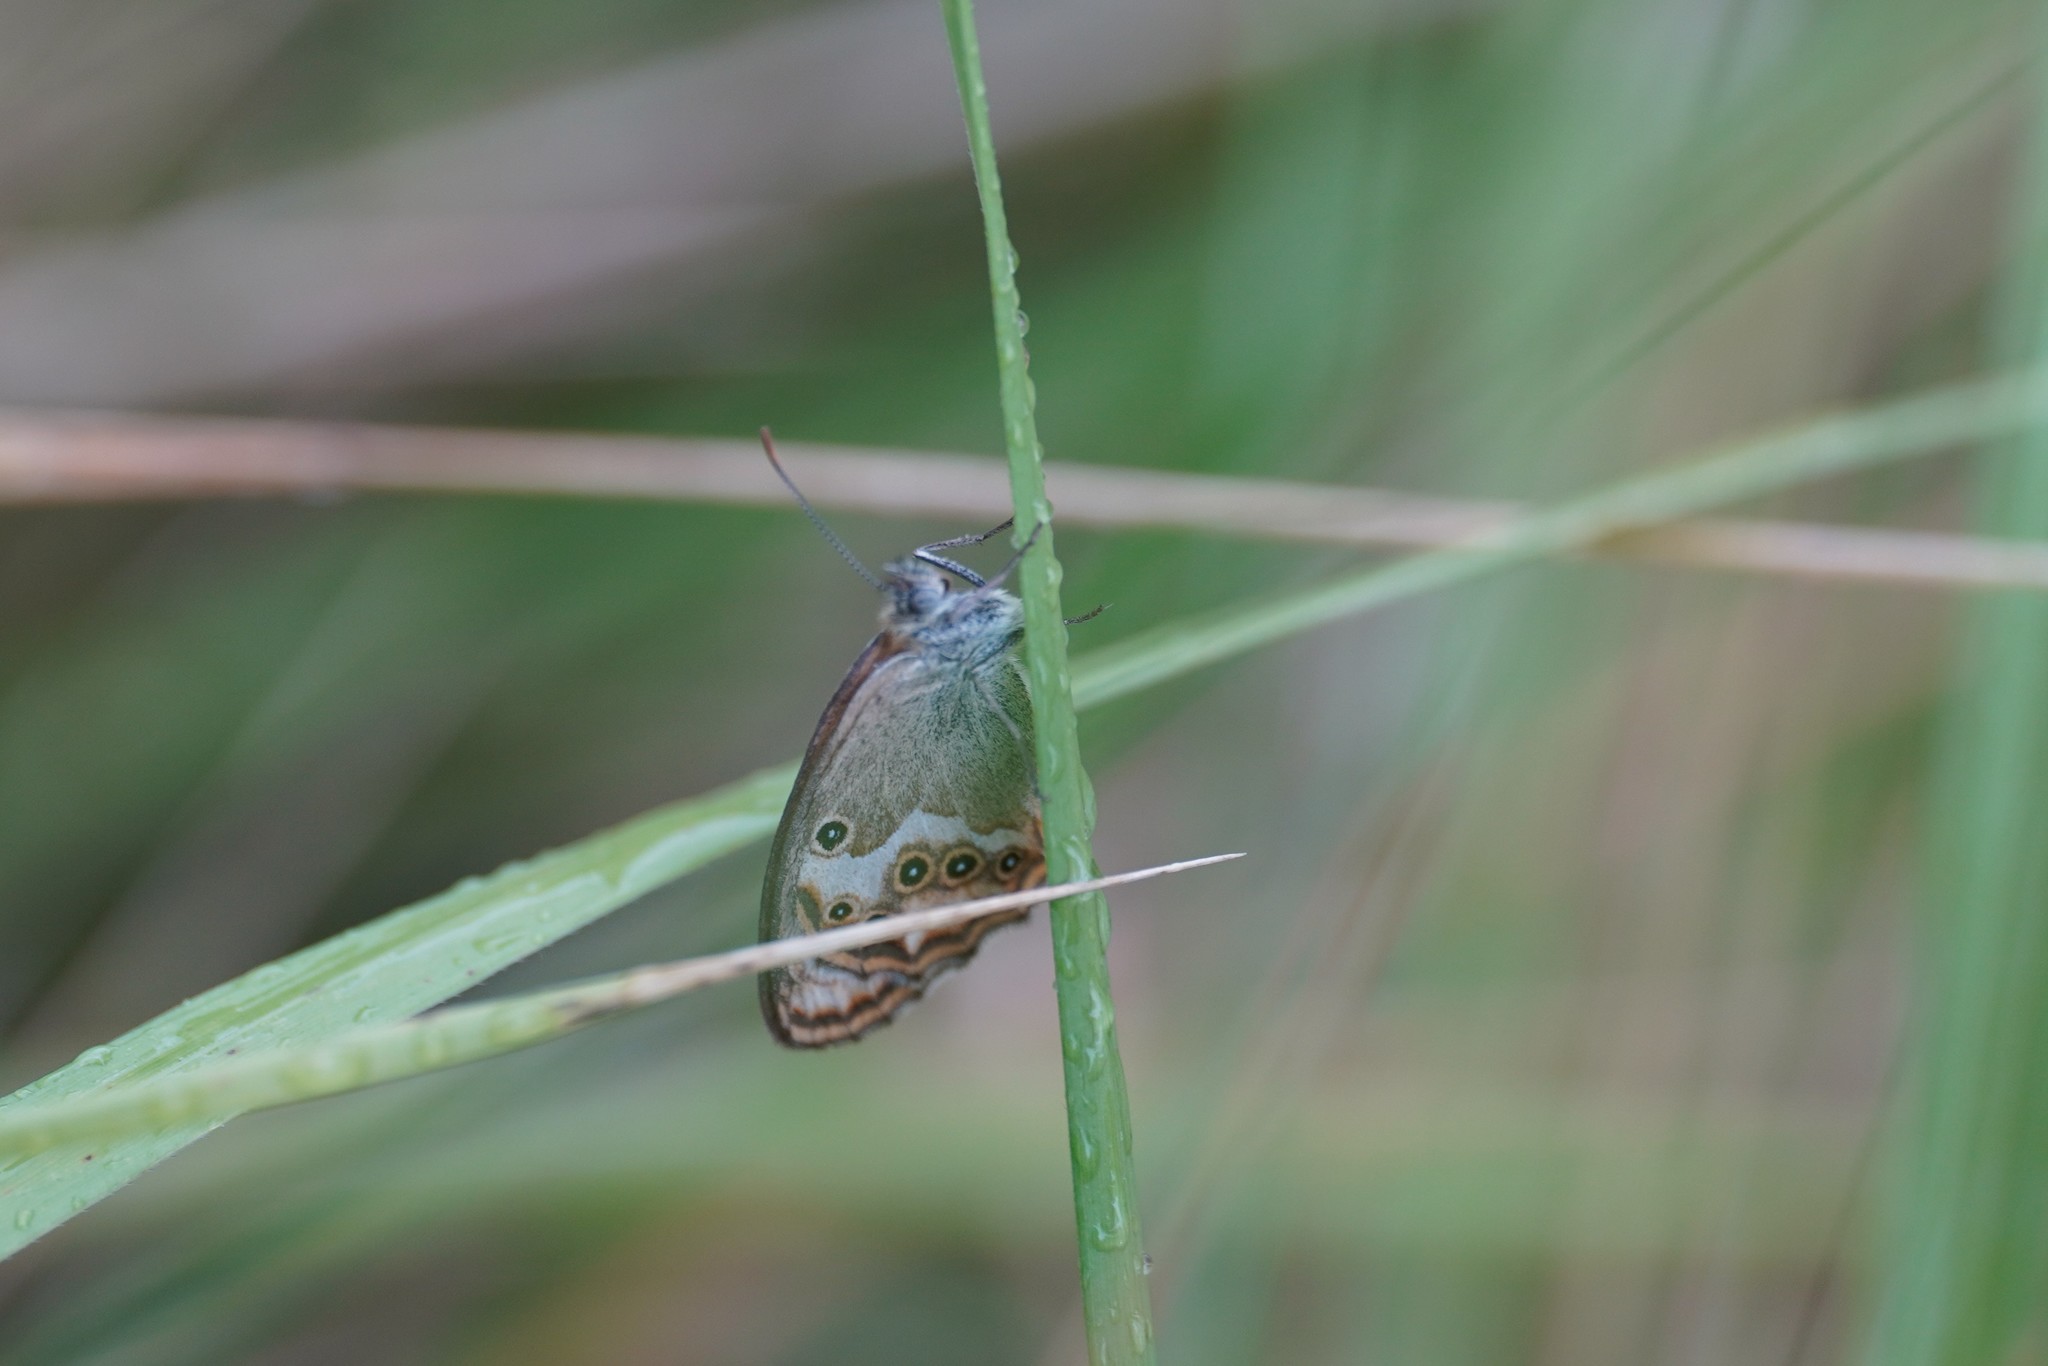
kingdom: Animalia
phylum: Arthropoda
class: Insecta
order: Lepidoptera
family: Nymphalidae
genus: Coenonympha
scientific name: Coenonympha dorus
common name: Dusky heath
